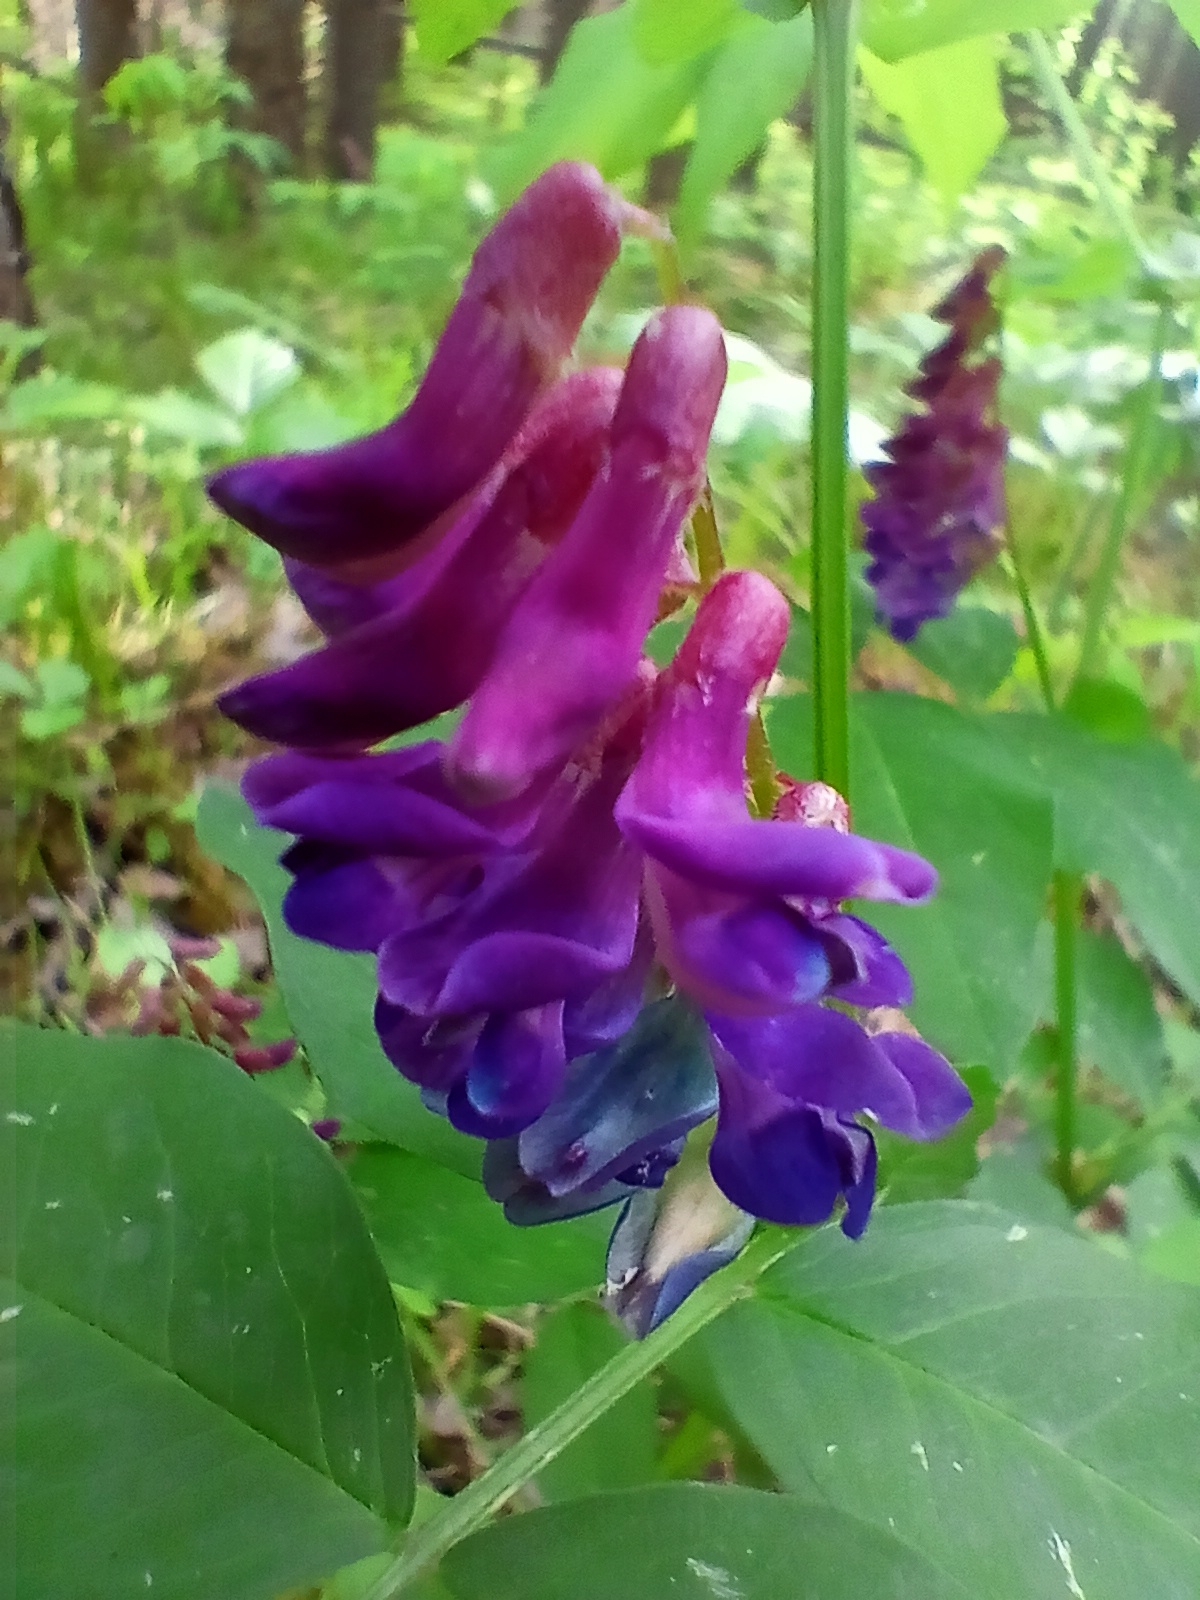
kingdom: Plantae
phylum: Tracheophyta
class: Magnoliopsida
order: Fabales
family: Fabaceae
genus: Vicia
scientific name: Vicia ramuliflora
